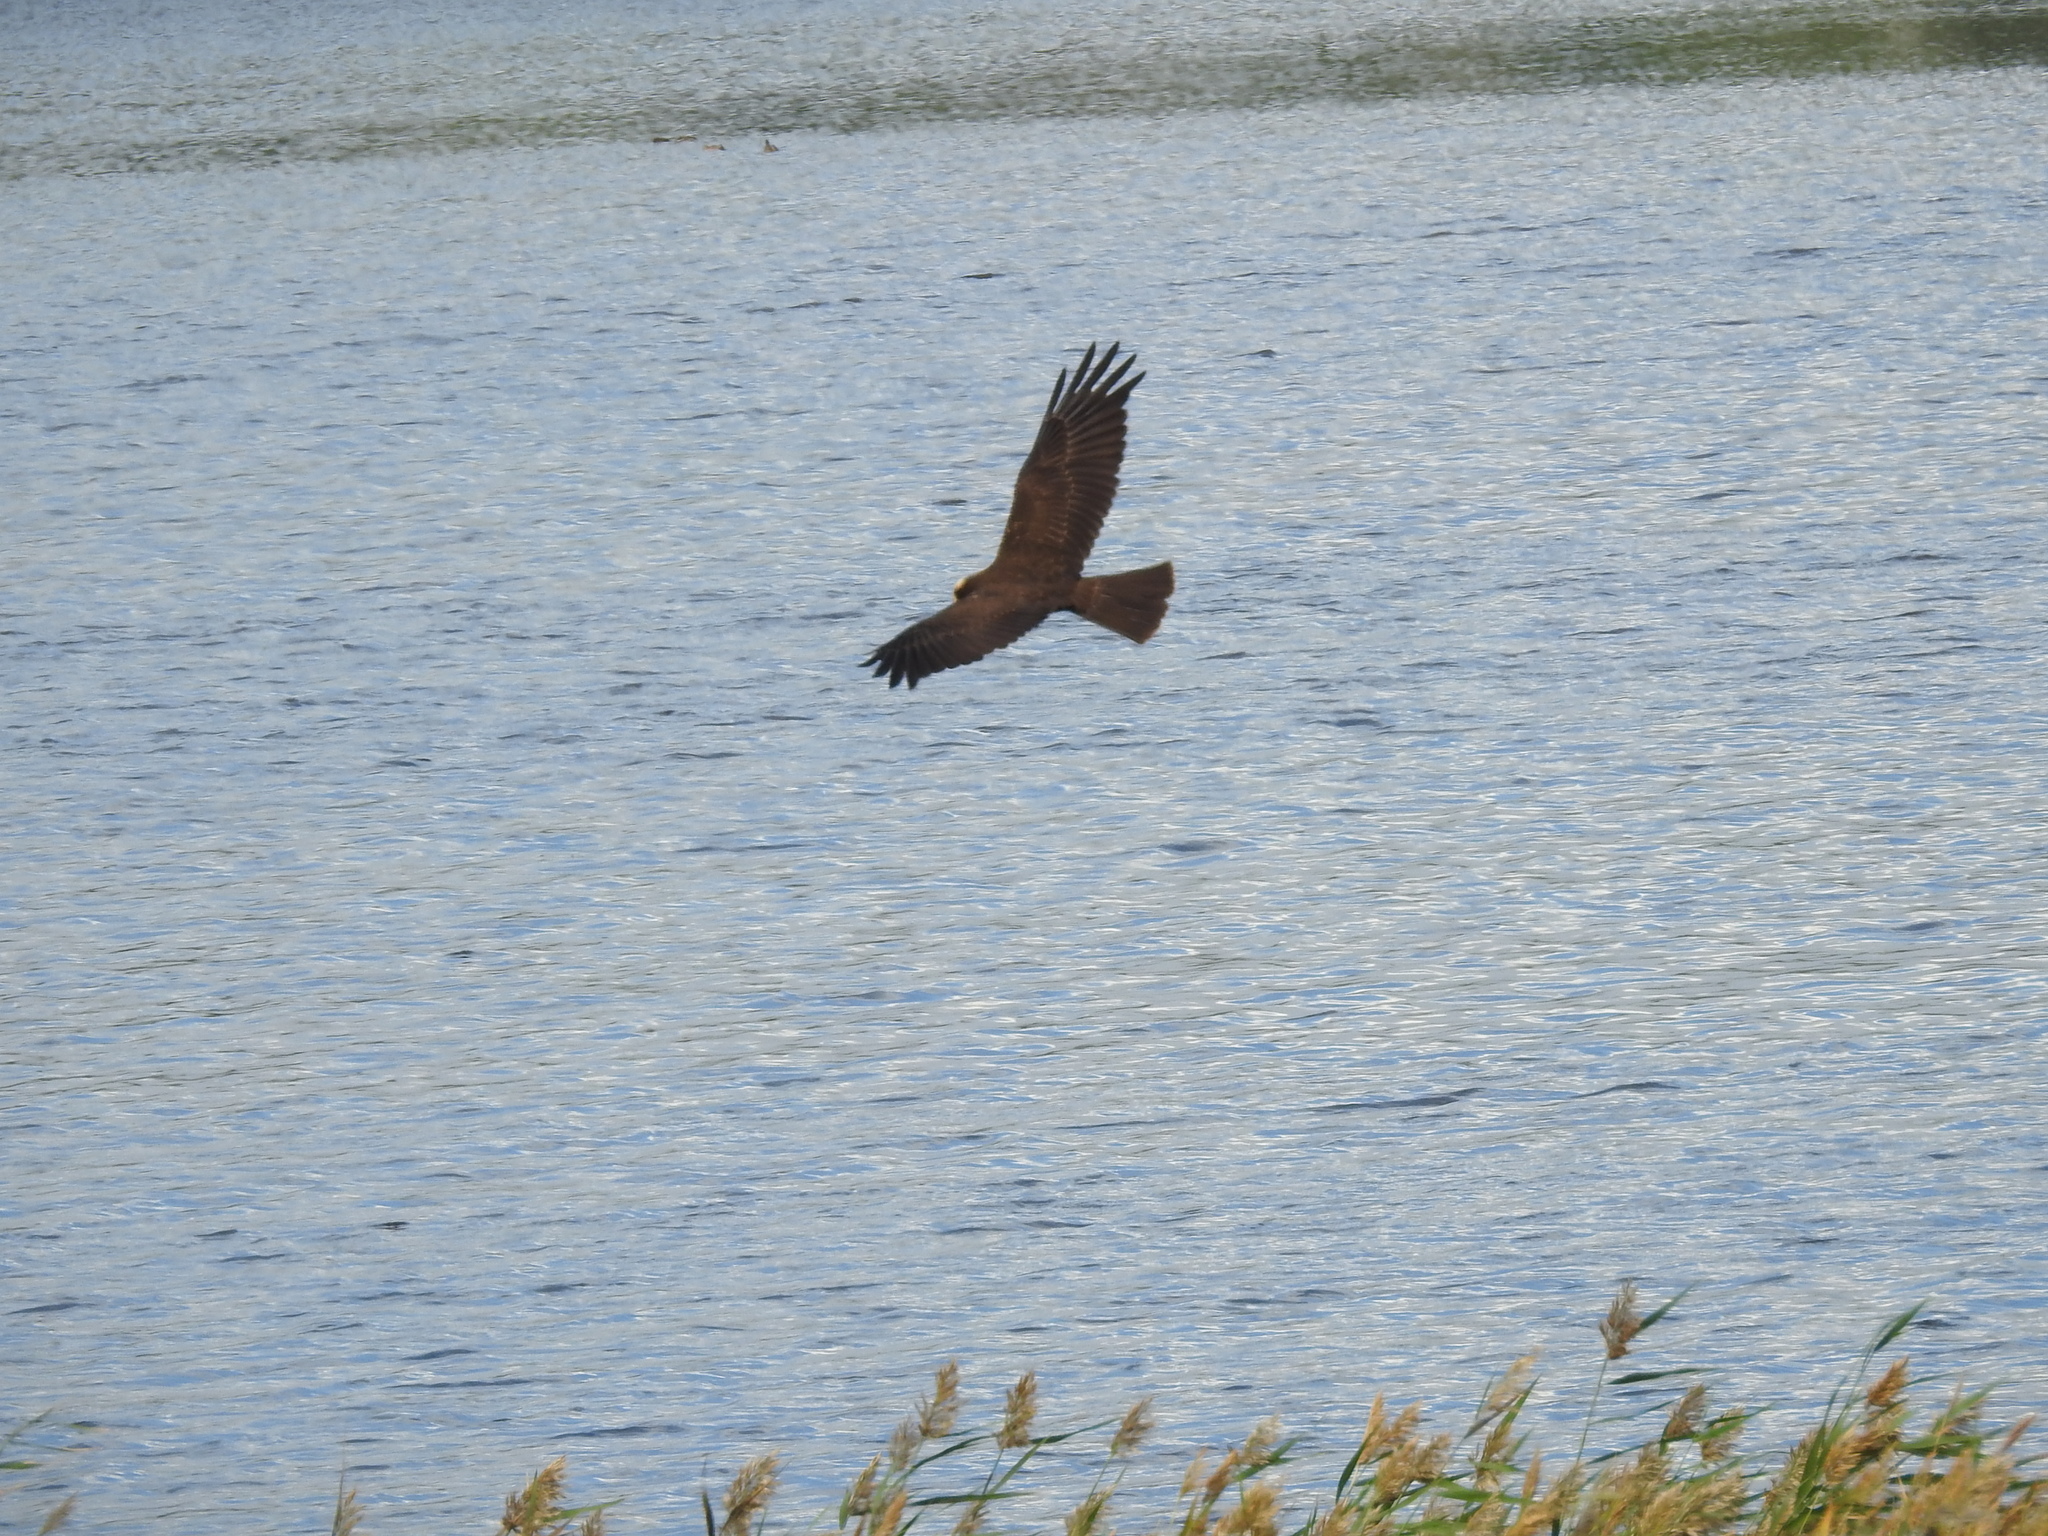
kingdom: Animalia
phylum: Chordata
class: Aves
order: Accipitriformes
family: Accipitridae
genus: Circus
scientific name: Circus aeruginosus
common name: Western marsh harrier
